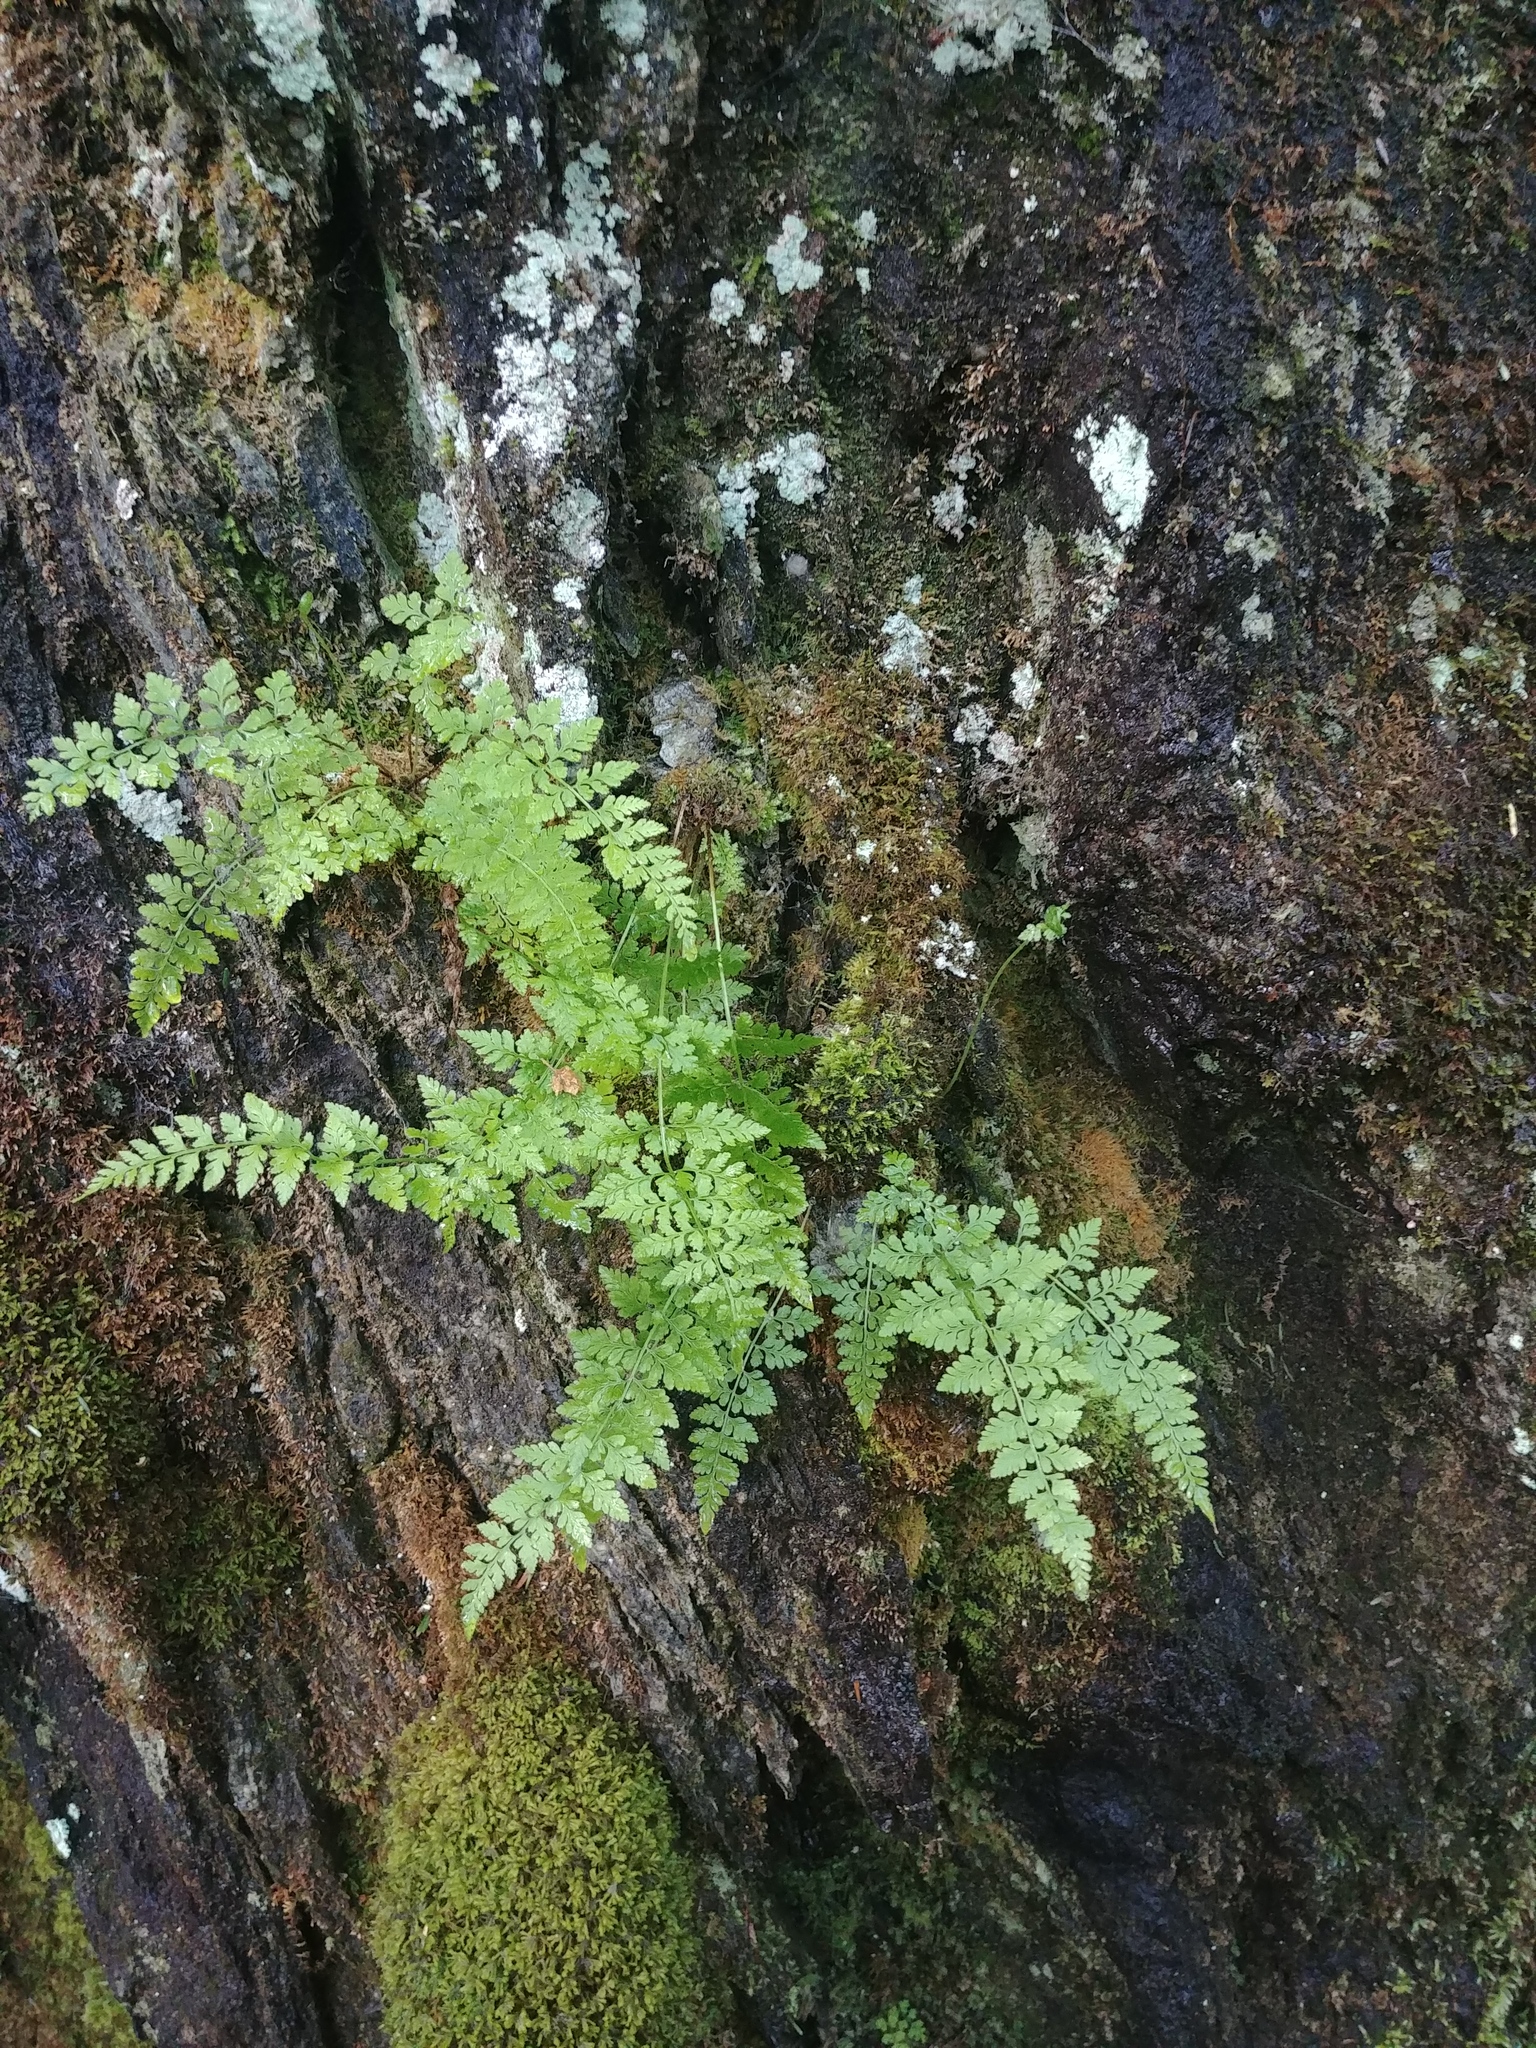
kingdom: Plantae
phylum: Tracheophyta
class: Polypodiopsida
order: Polypodiales
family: Cystopteridaceae
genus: Cystopteris
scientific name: Cystopteris tenuis
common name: Mackay's brittle fern
